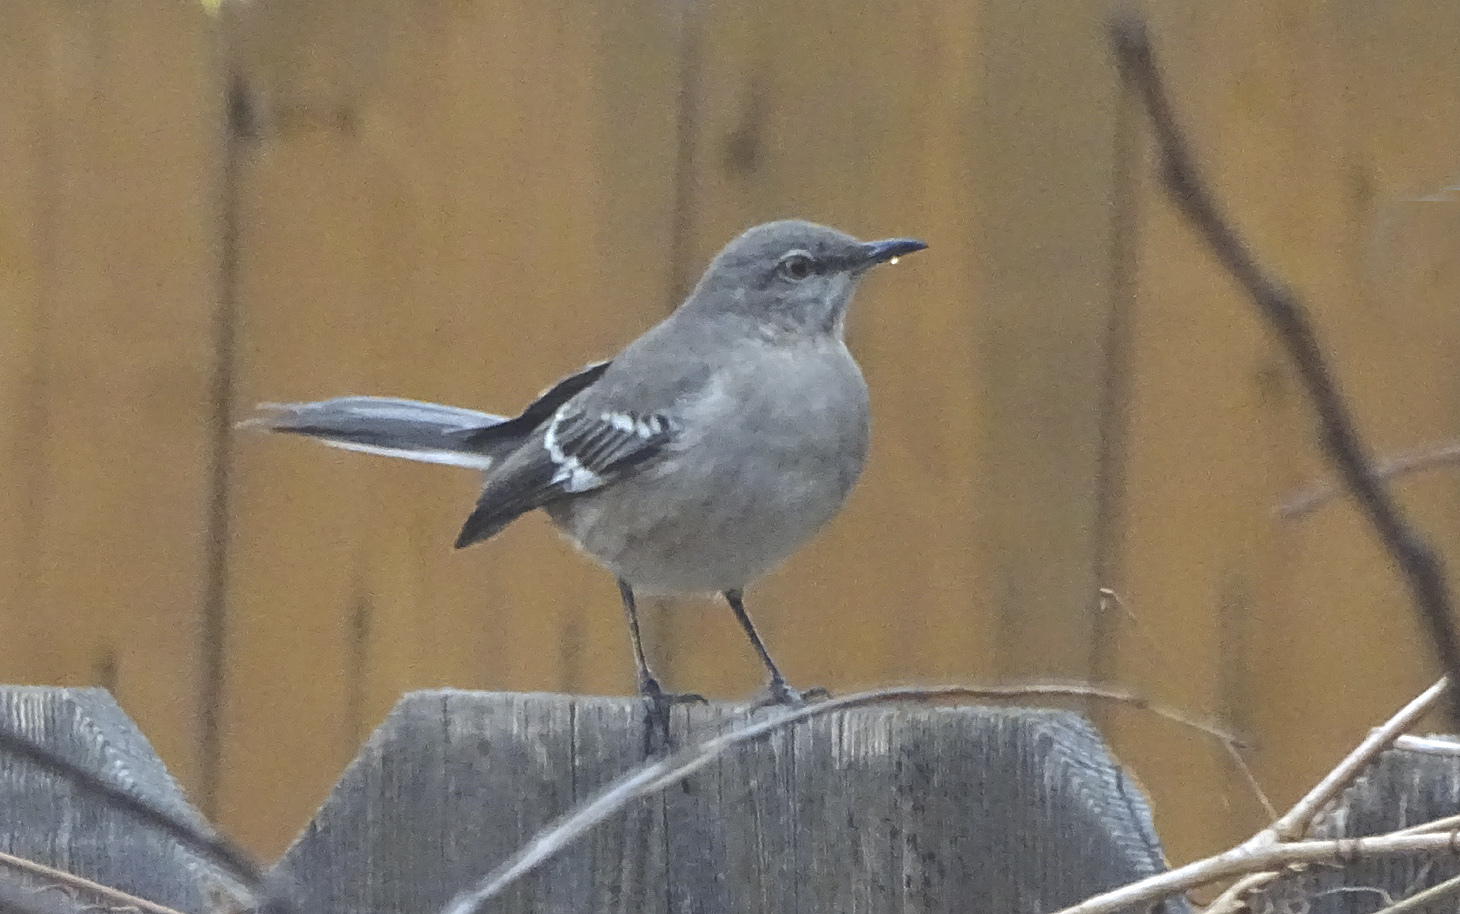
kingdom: Animalia
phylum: Chordata
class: Aves
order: Passeriformes
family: Mimidae
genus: Mimus
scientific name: Mimus polyglottos
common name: Northern mockingbird
